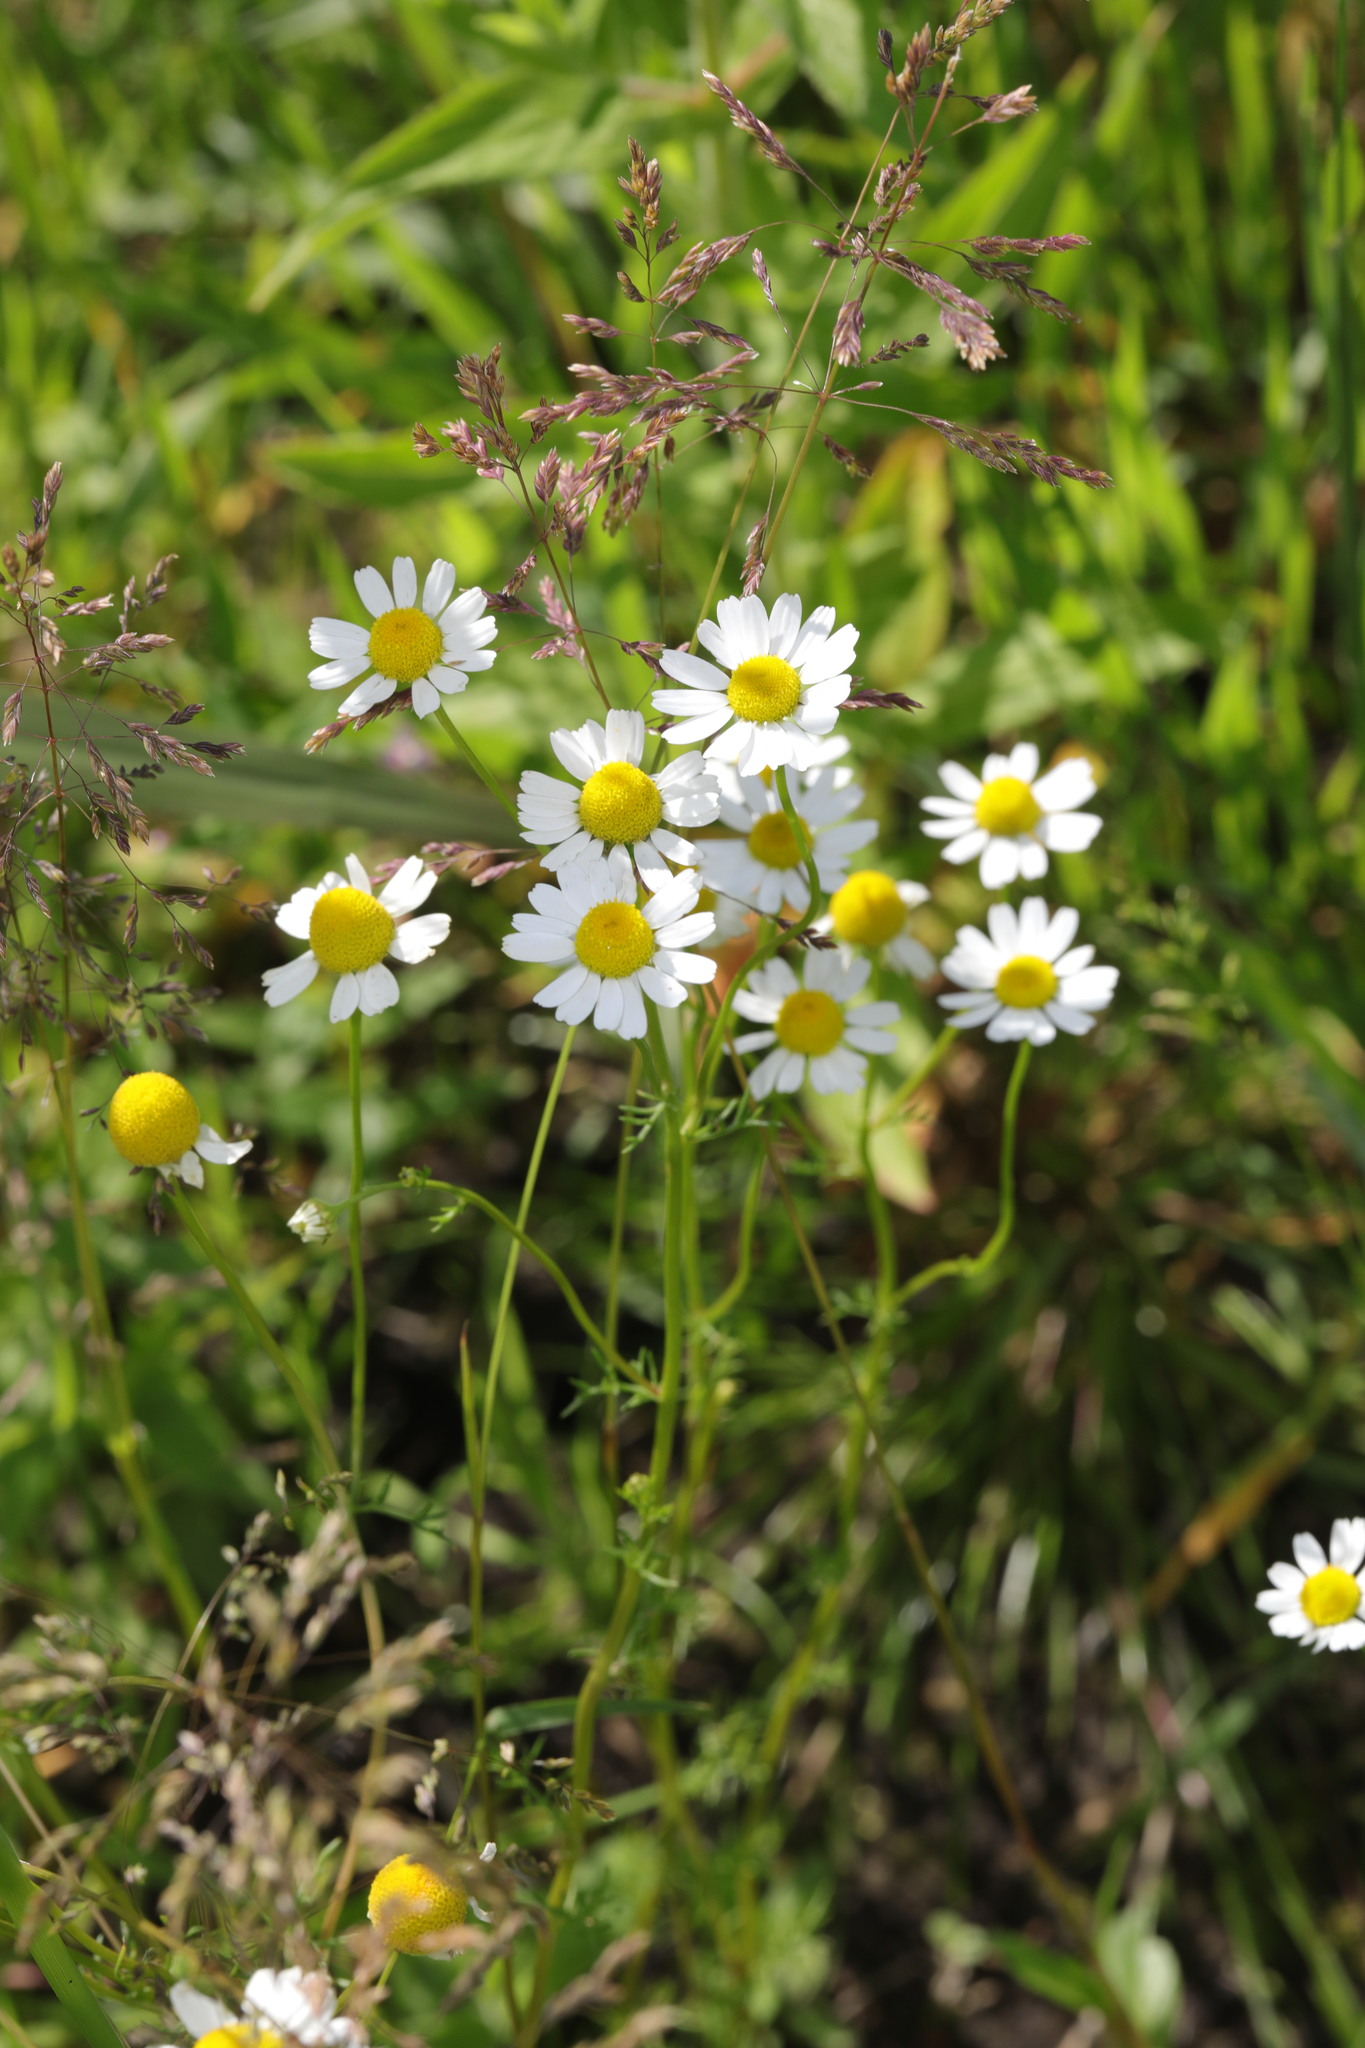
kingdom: Plantae
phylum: Tracheophyta
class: Magnoliopsida
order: Asterales
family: Asteraceae
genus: Matricaria
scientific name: Matricaria chamomilla
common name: Scented mayweed
